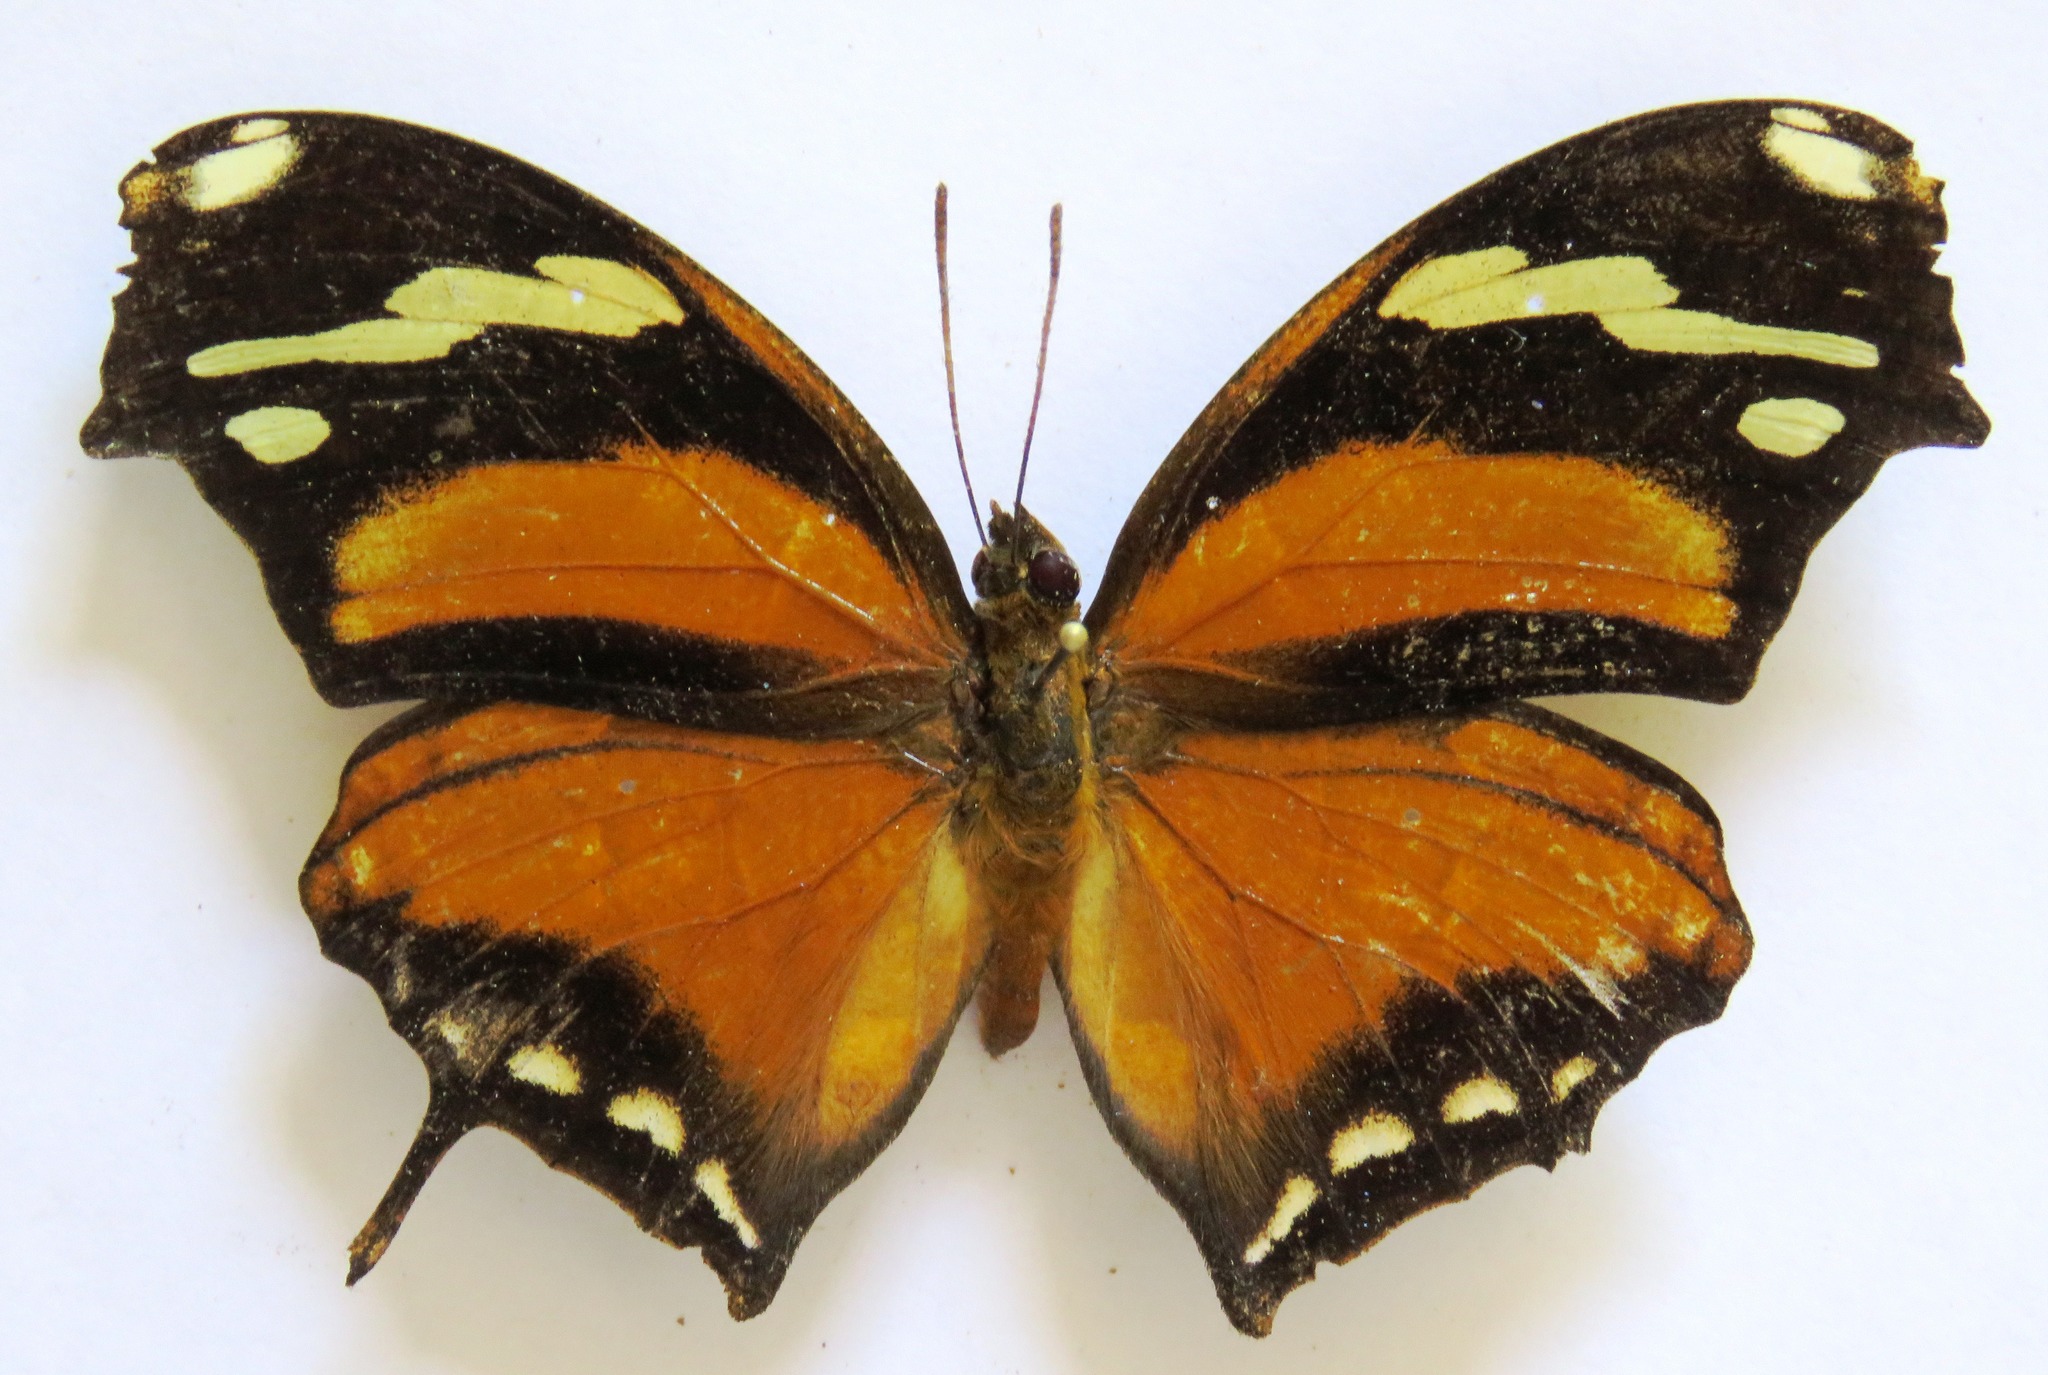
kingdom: Animalia
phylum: Arthropoda
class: Insecta
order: Lepidoptera
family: Nymphalidae
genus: Consul
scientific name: Consul fabius
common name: Tiger leafwing
